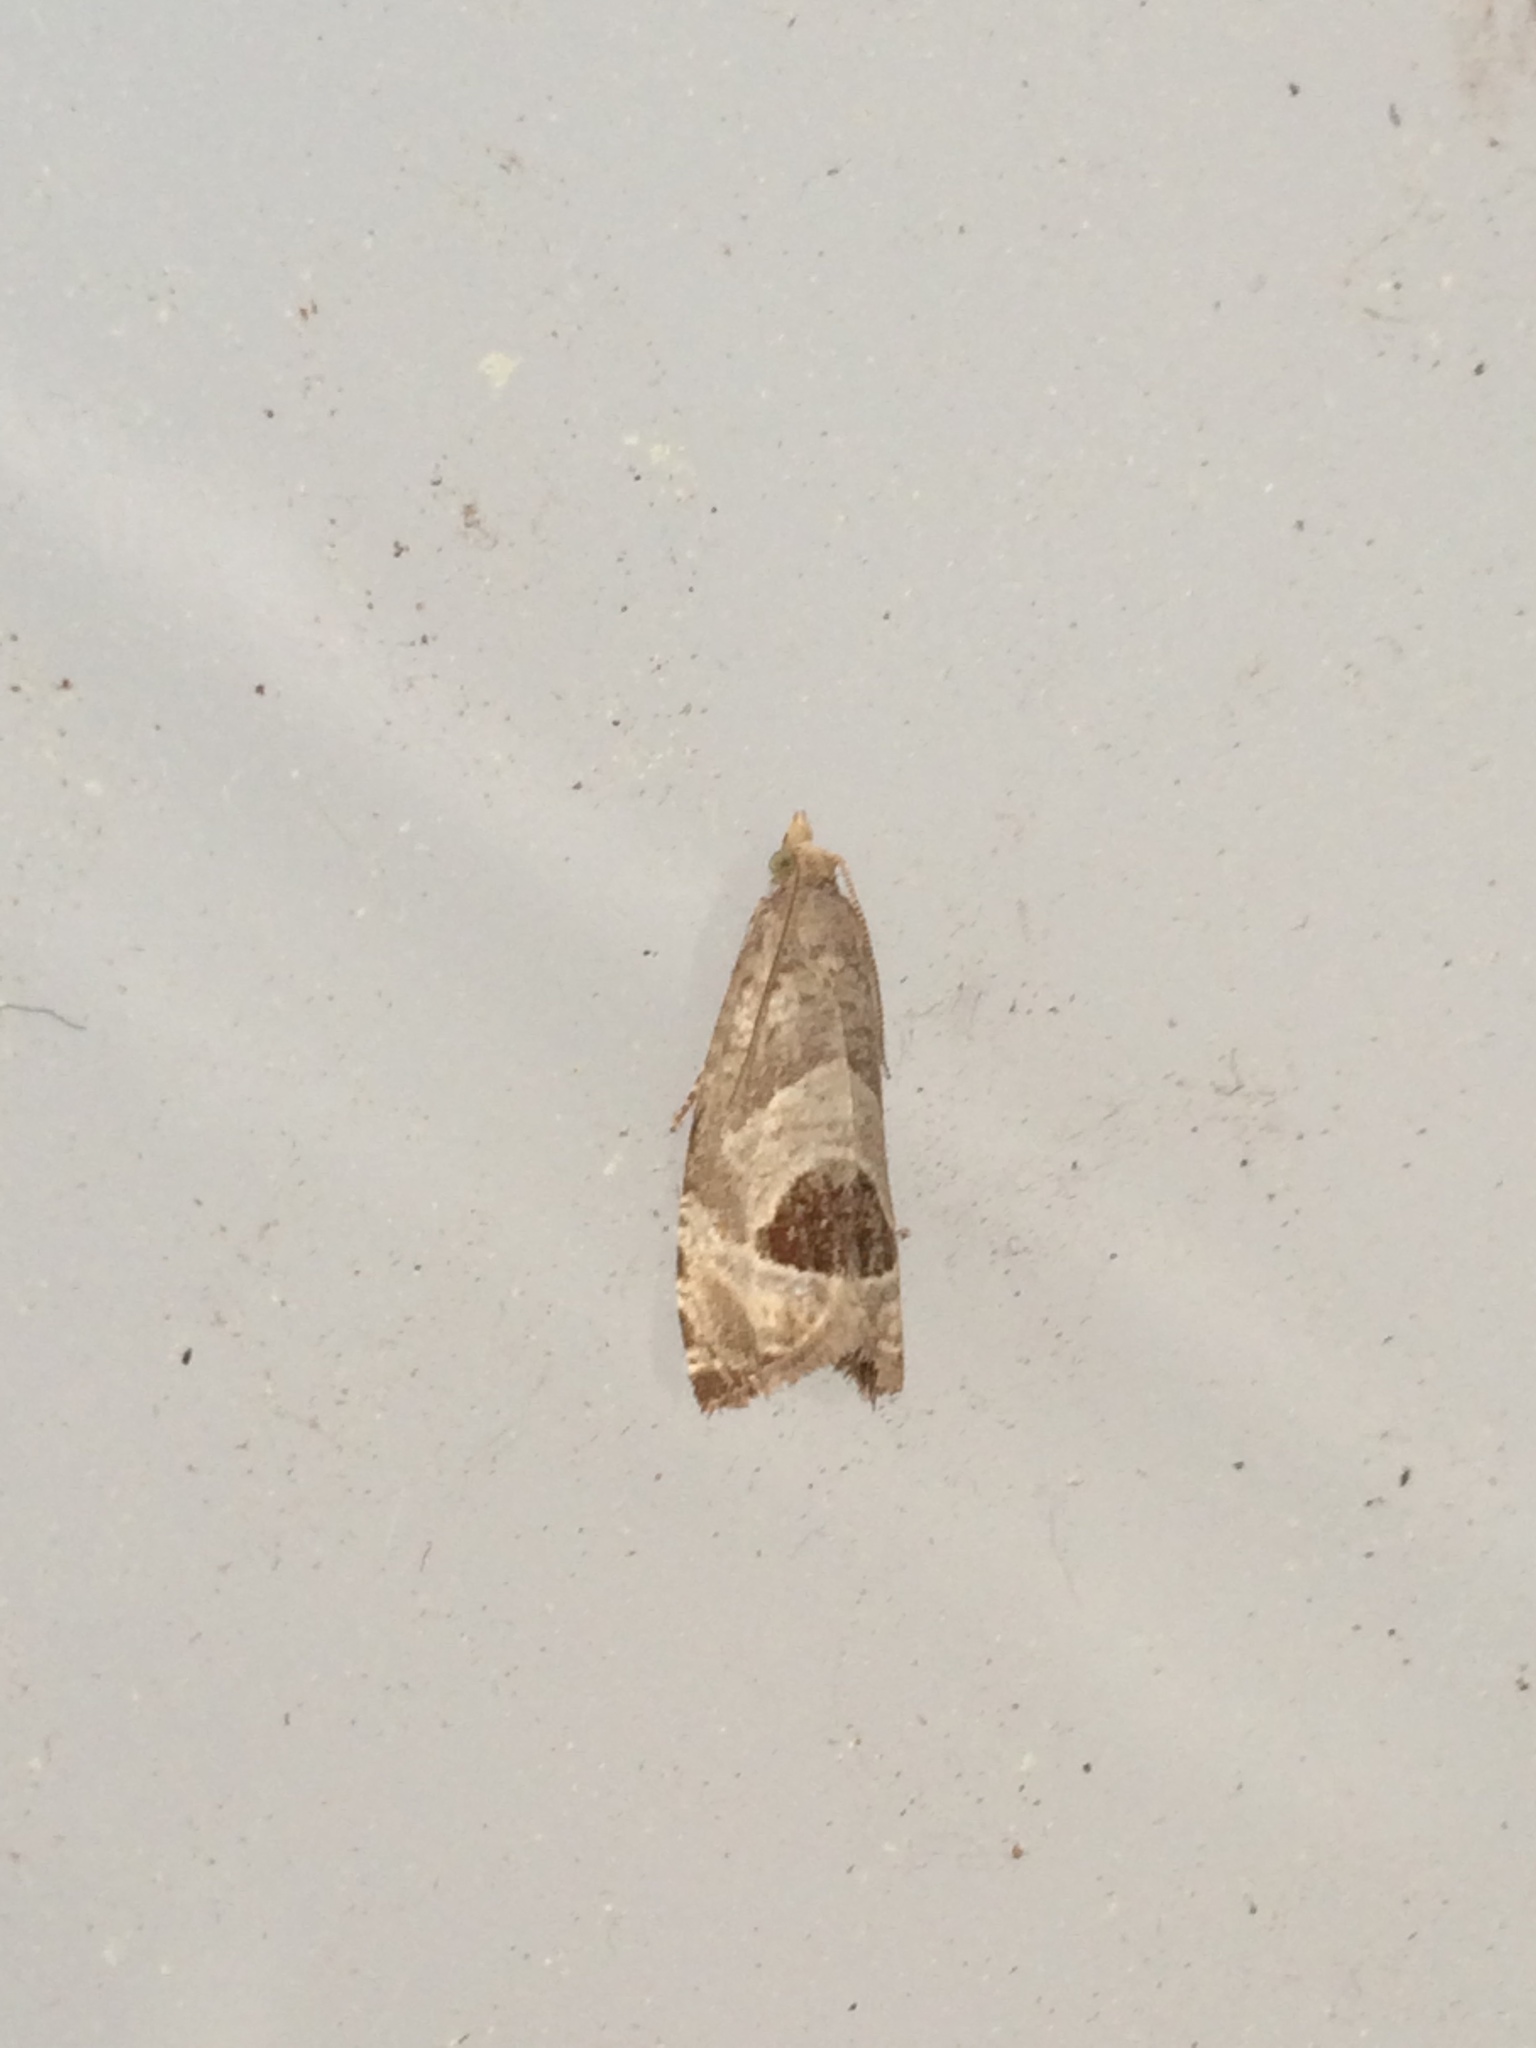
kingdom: Animalia
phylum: Arthropoda
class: Insecta
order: Lepidoptera
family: Tortricidae
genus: Notocelia
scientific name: Notocelia uddmanniana
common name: Bramble shoot moth
